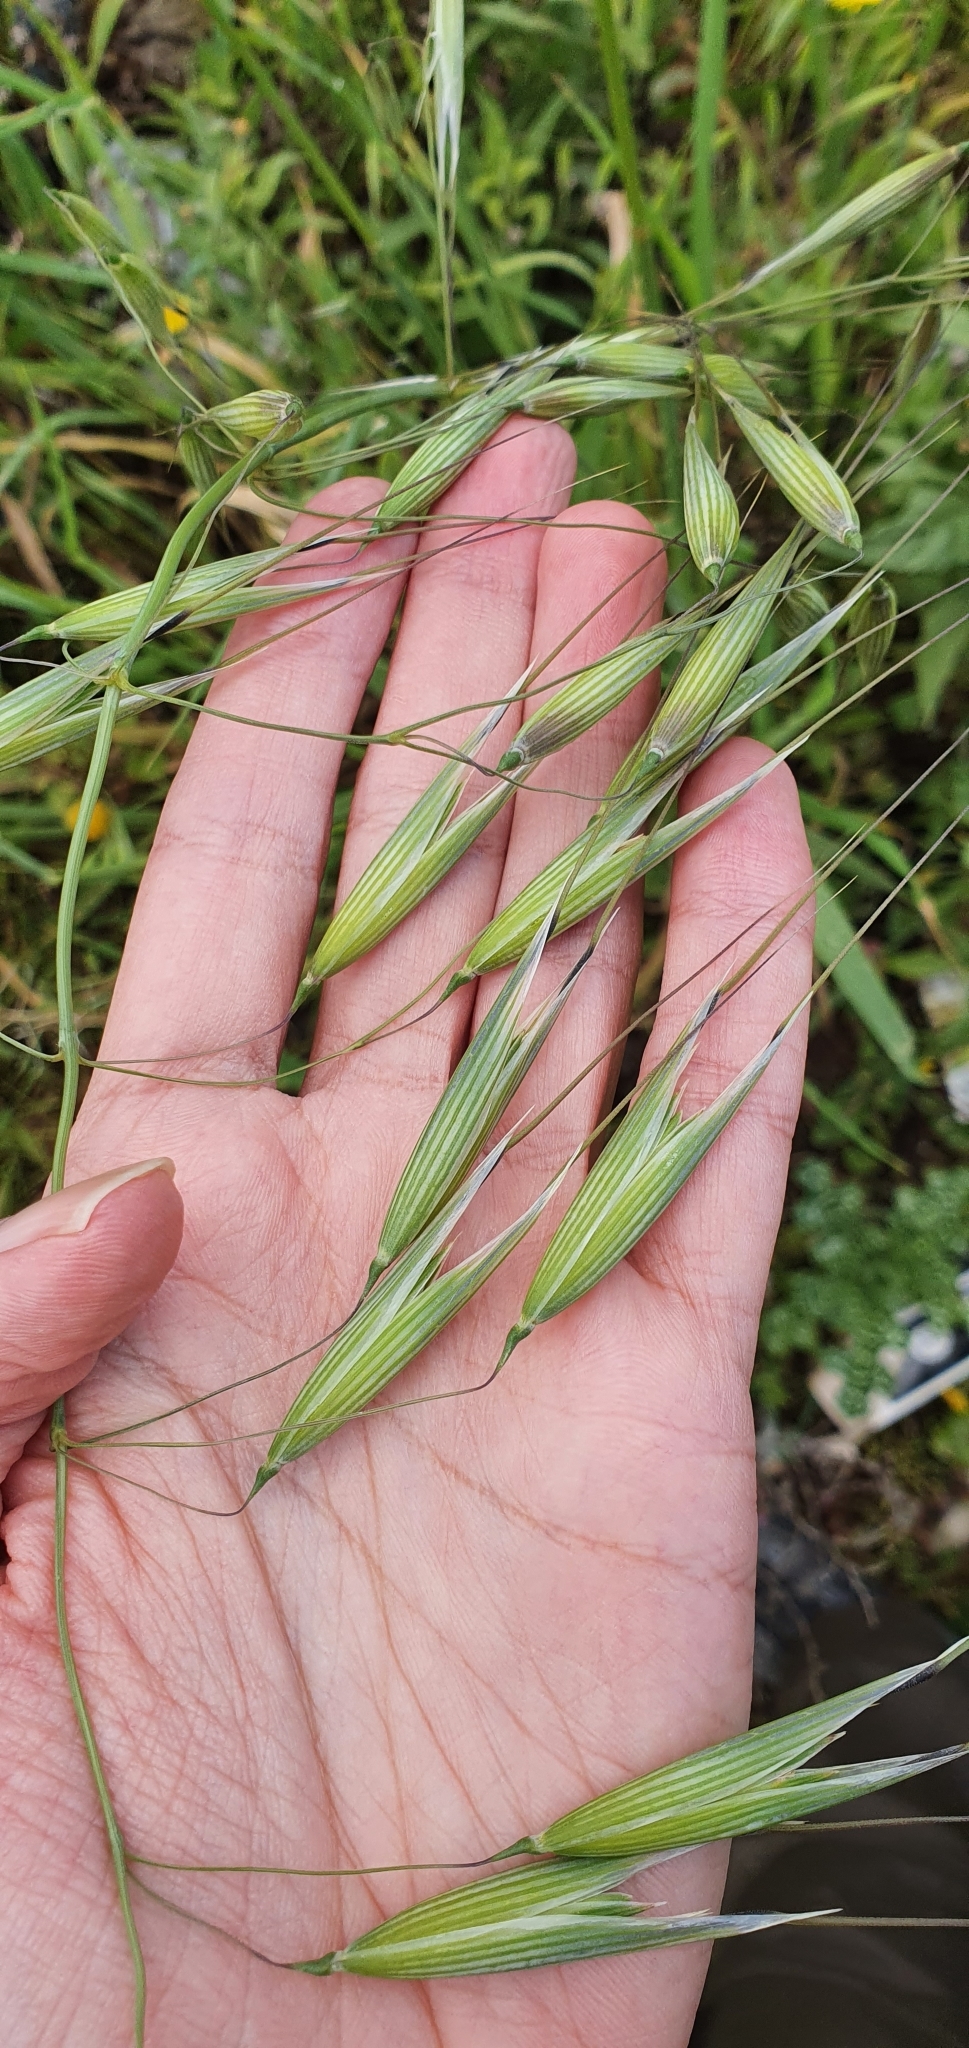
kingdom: Plantae
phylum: Tracheophyta
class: Liliopsida
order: Poales
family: Poaceae
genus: Avena
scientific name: Avena sterilis
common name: Animated oat
